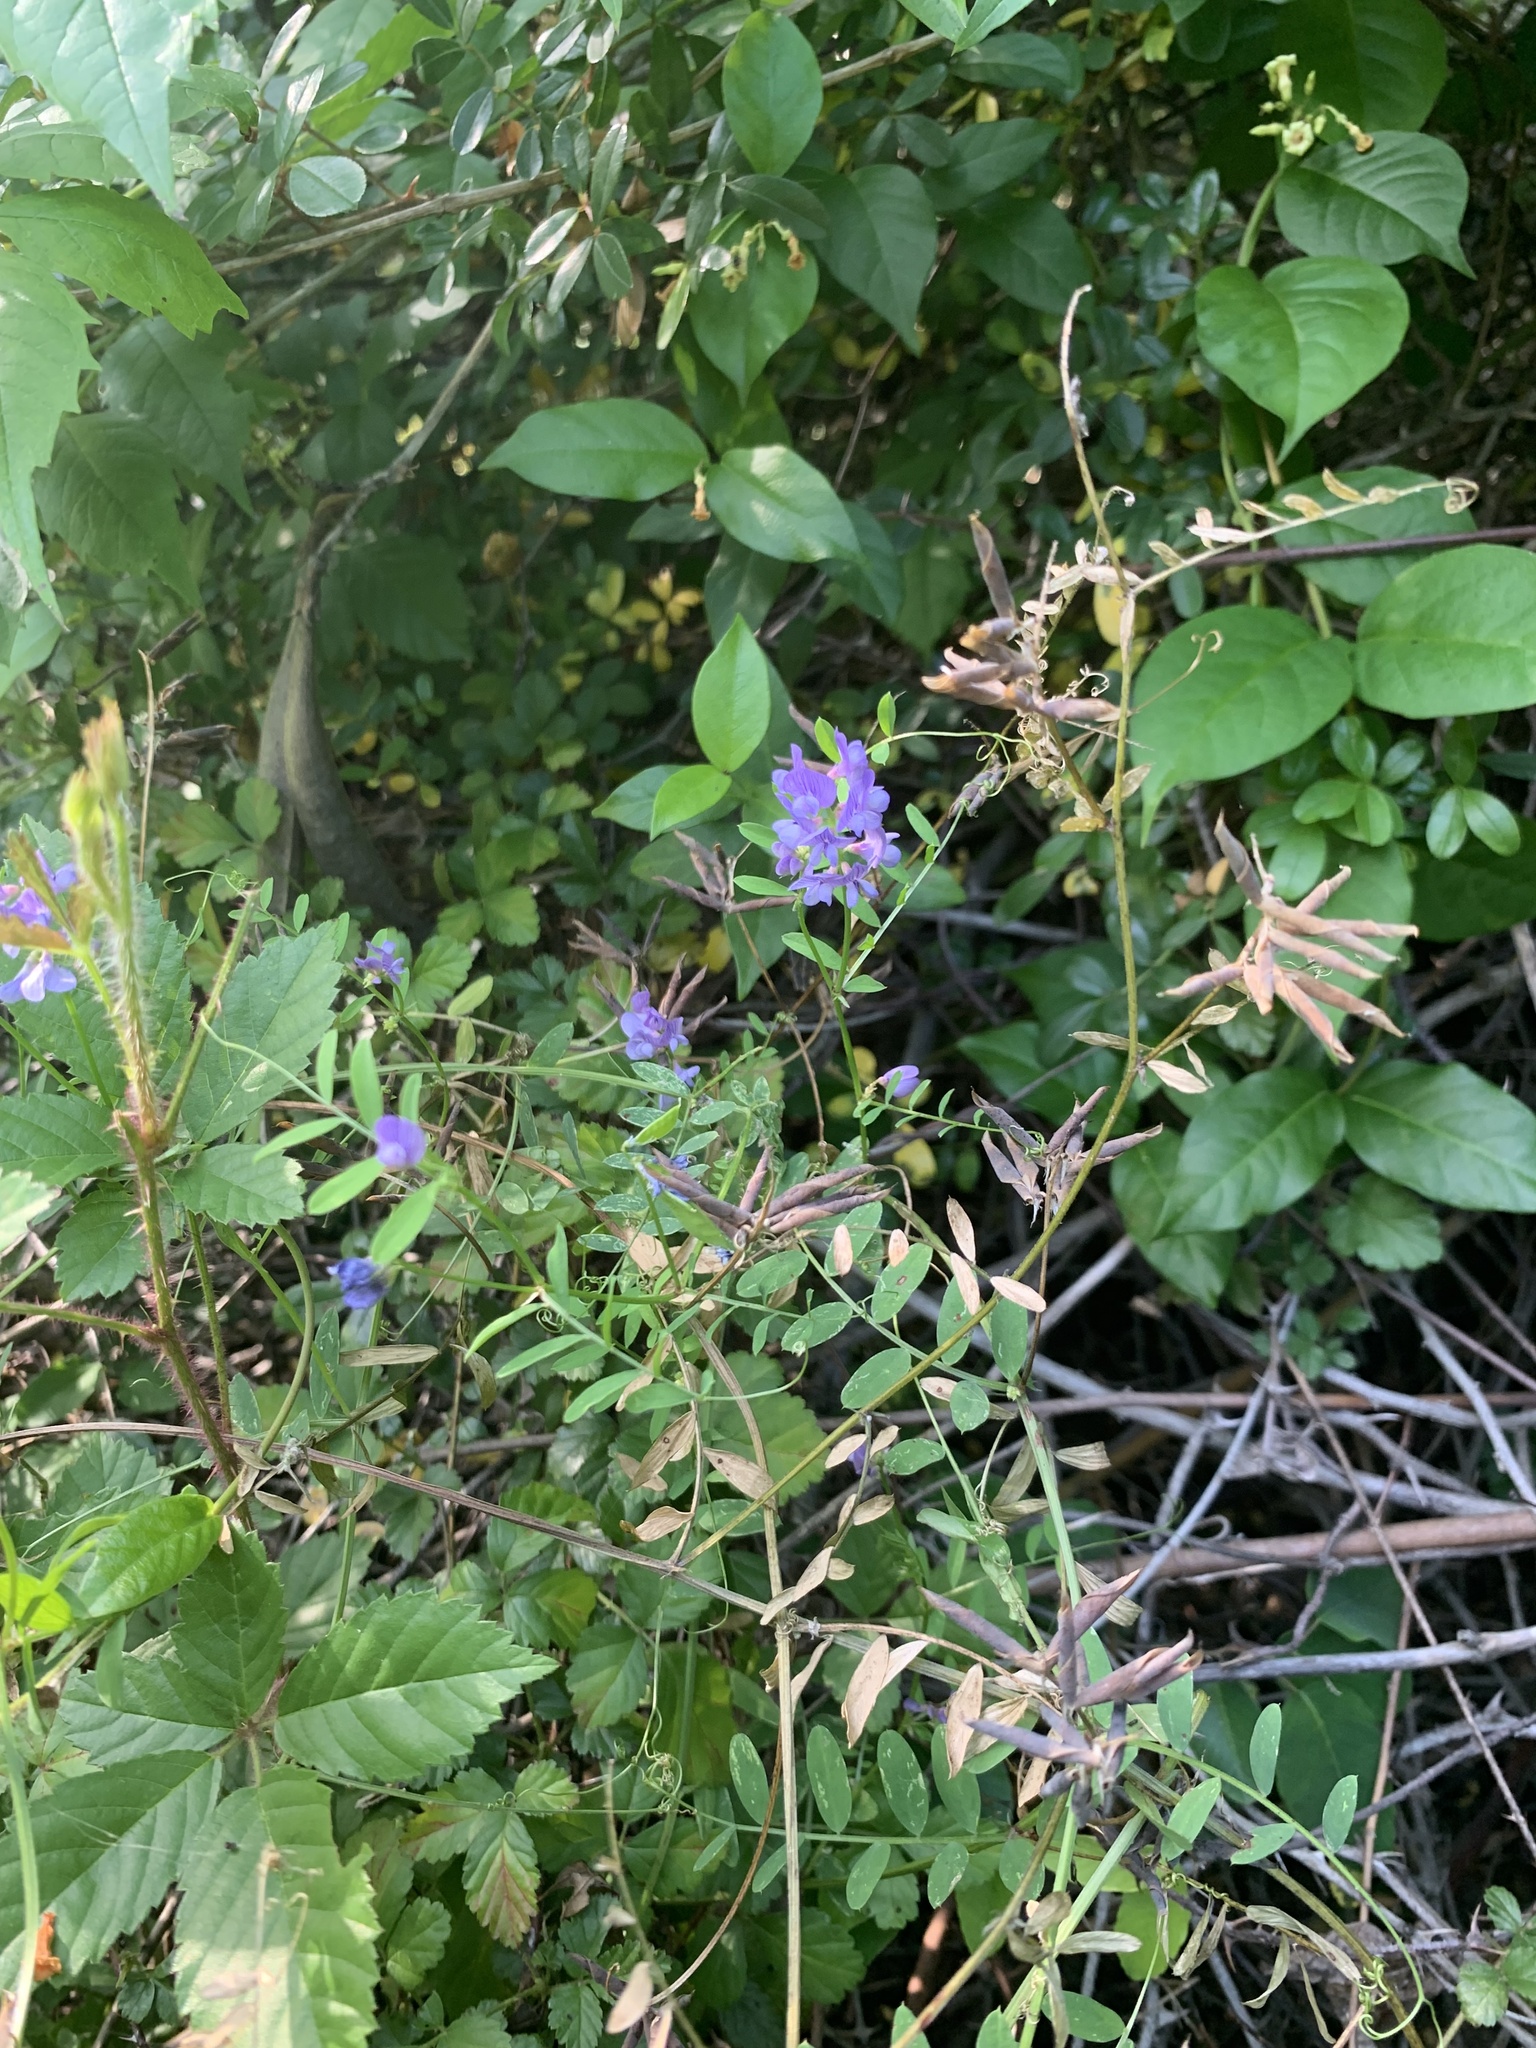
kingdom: Plantae
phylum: Tracheophyta
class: Magnoliopsida
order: Fabales
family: Fabaceae
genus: Vicia
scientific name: Vicia ludoviciana
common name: Louisiana vetch
